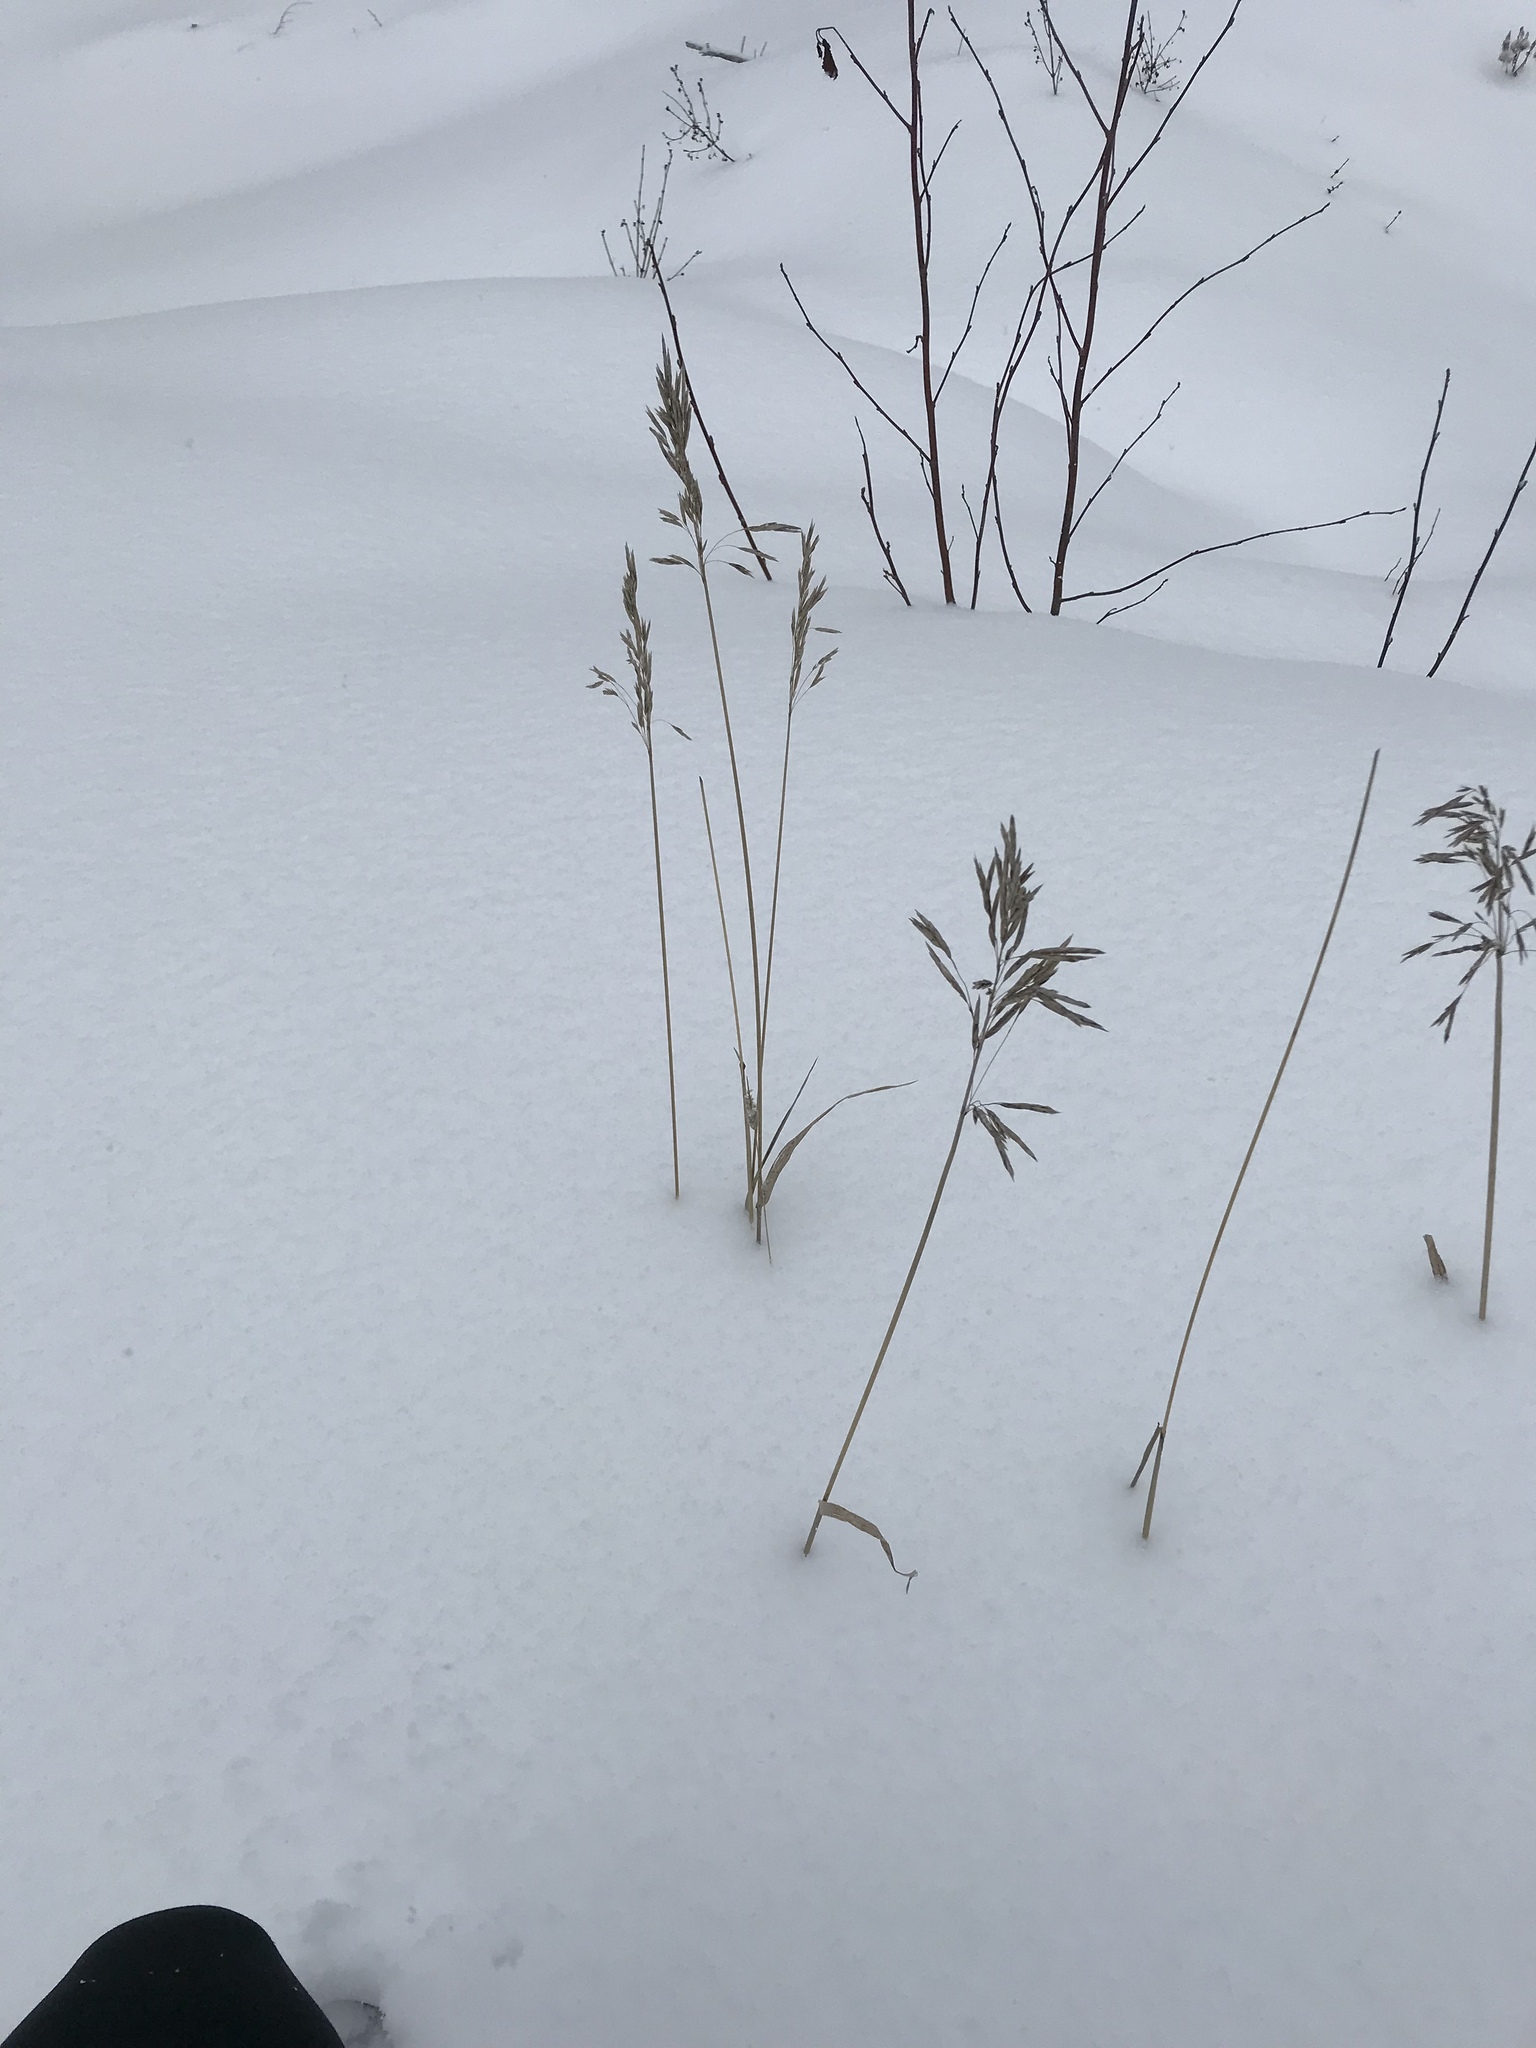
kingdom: Plantae
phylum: Tracheophyta
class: Liliopsida
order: Poales
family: Poaceae
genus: Bromus
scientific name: Bromus inermis
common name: Smooth brome
